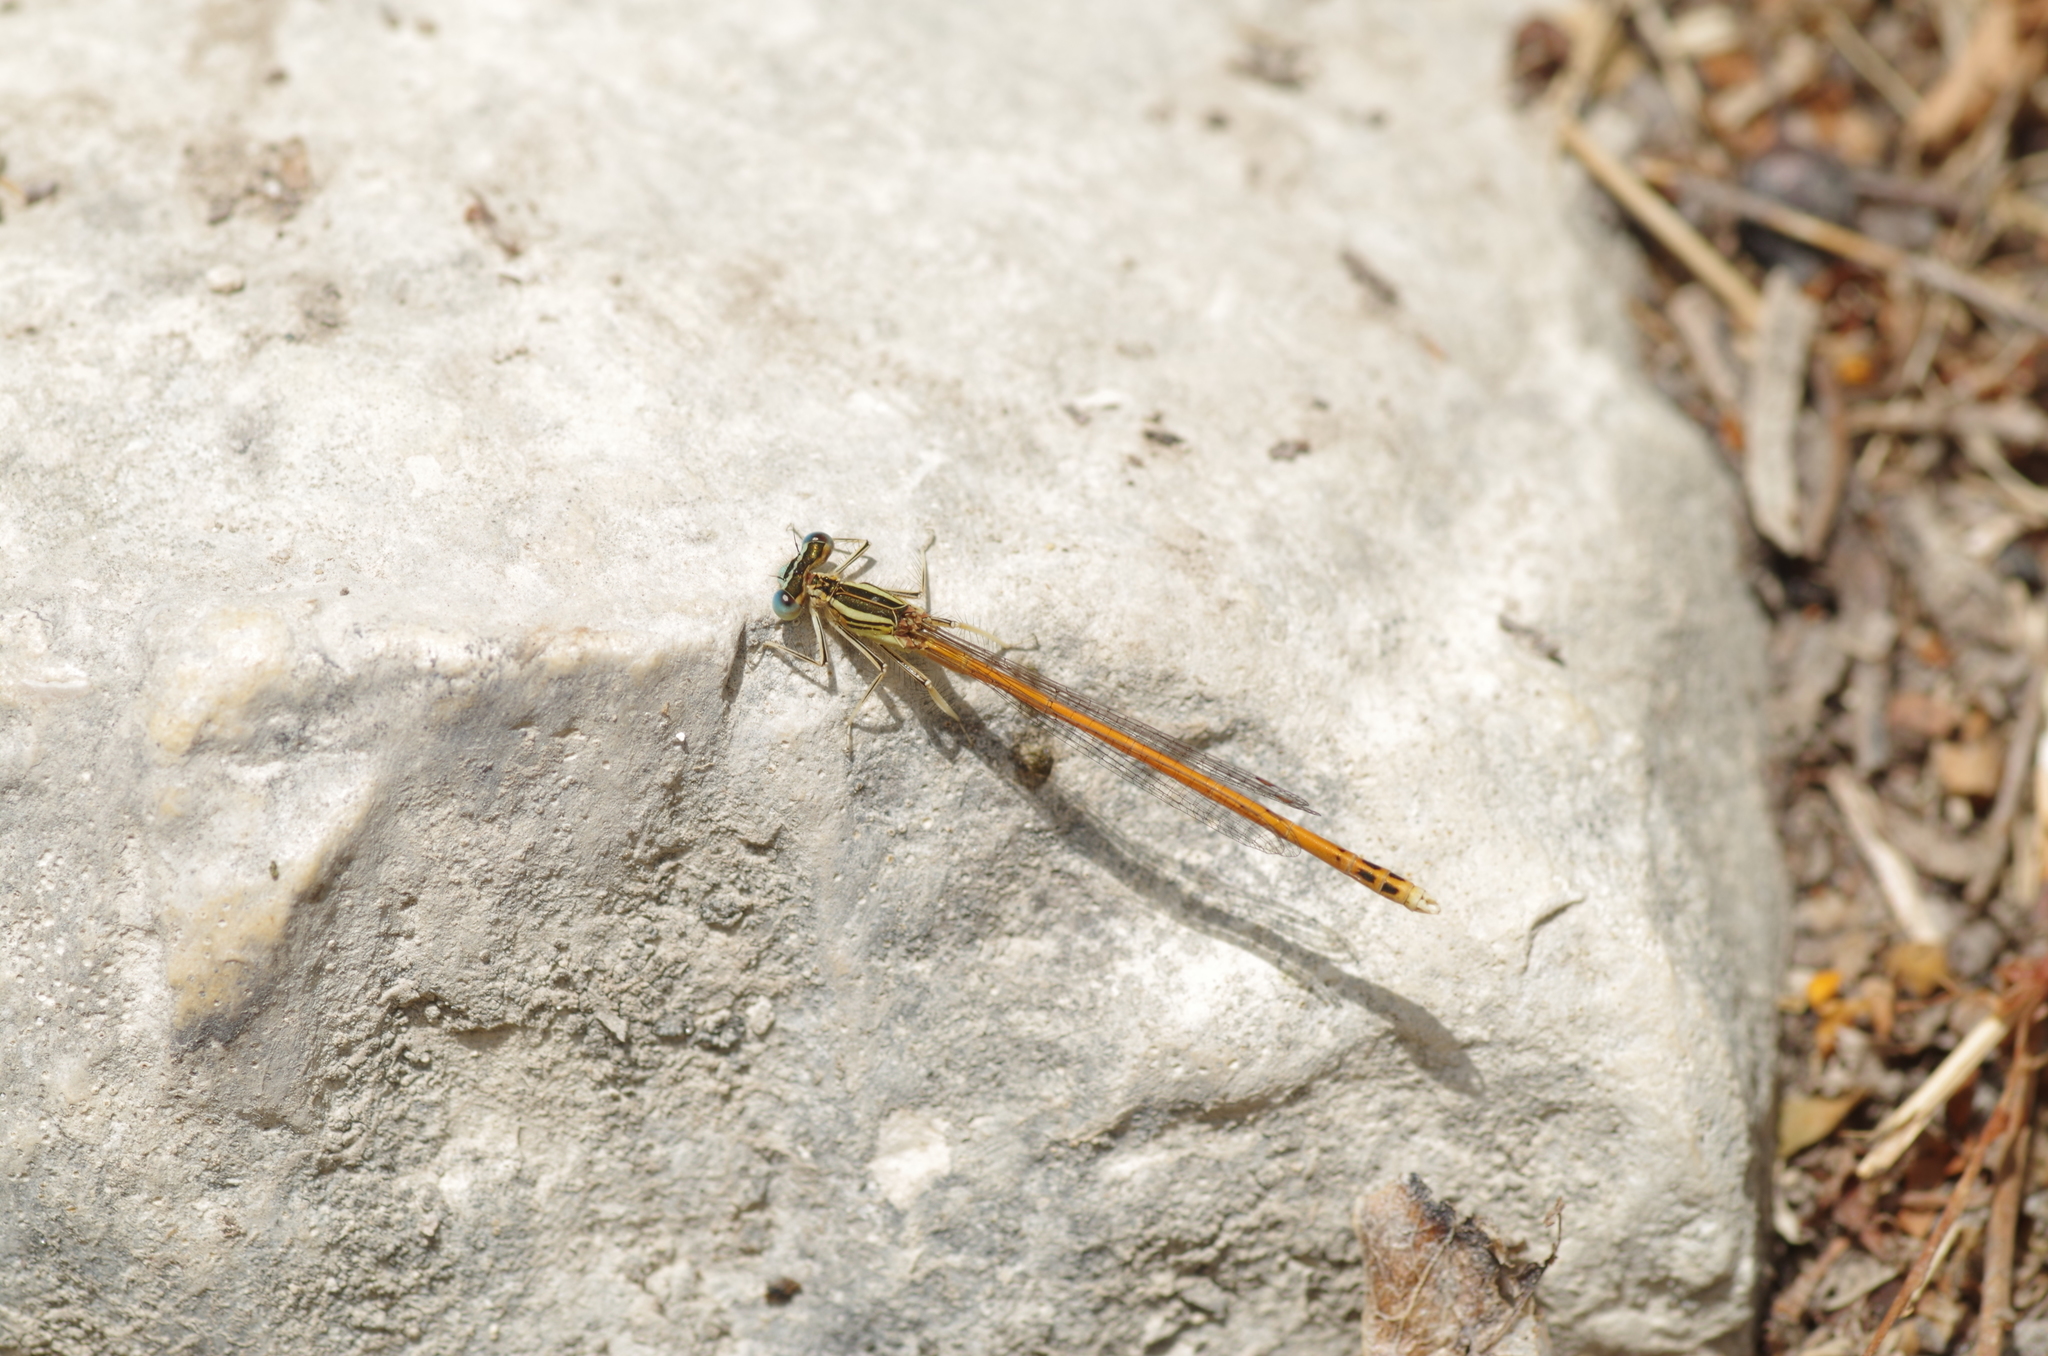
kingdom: Animalia
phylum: Arthropoda
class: Insecta
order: Odonata
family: Platycnemididae
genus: Platycnemis
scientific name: Platycnemis acutipennis
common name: Orange featherleg
